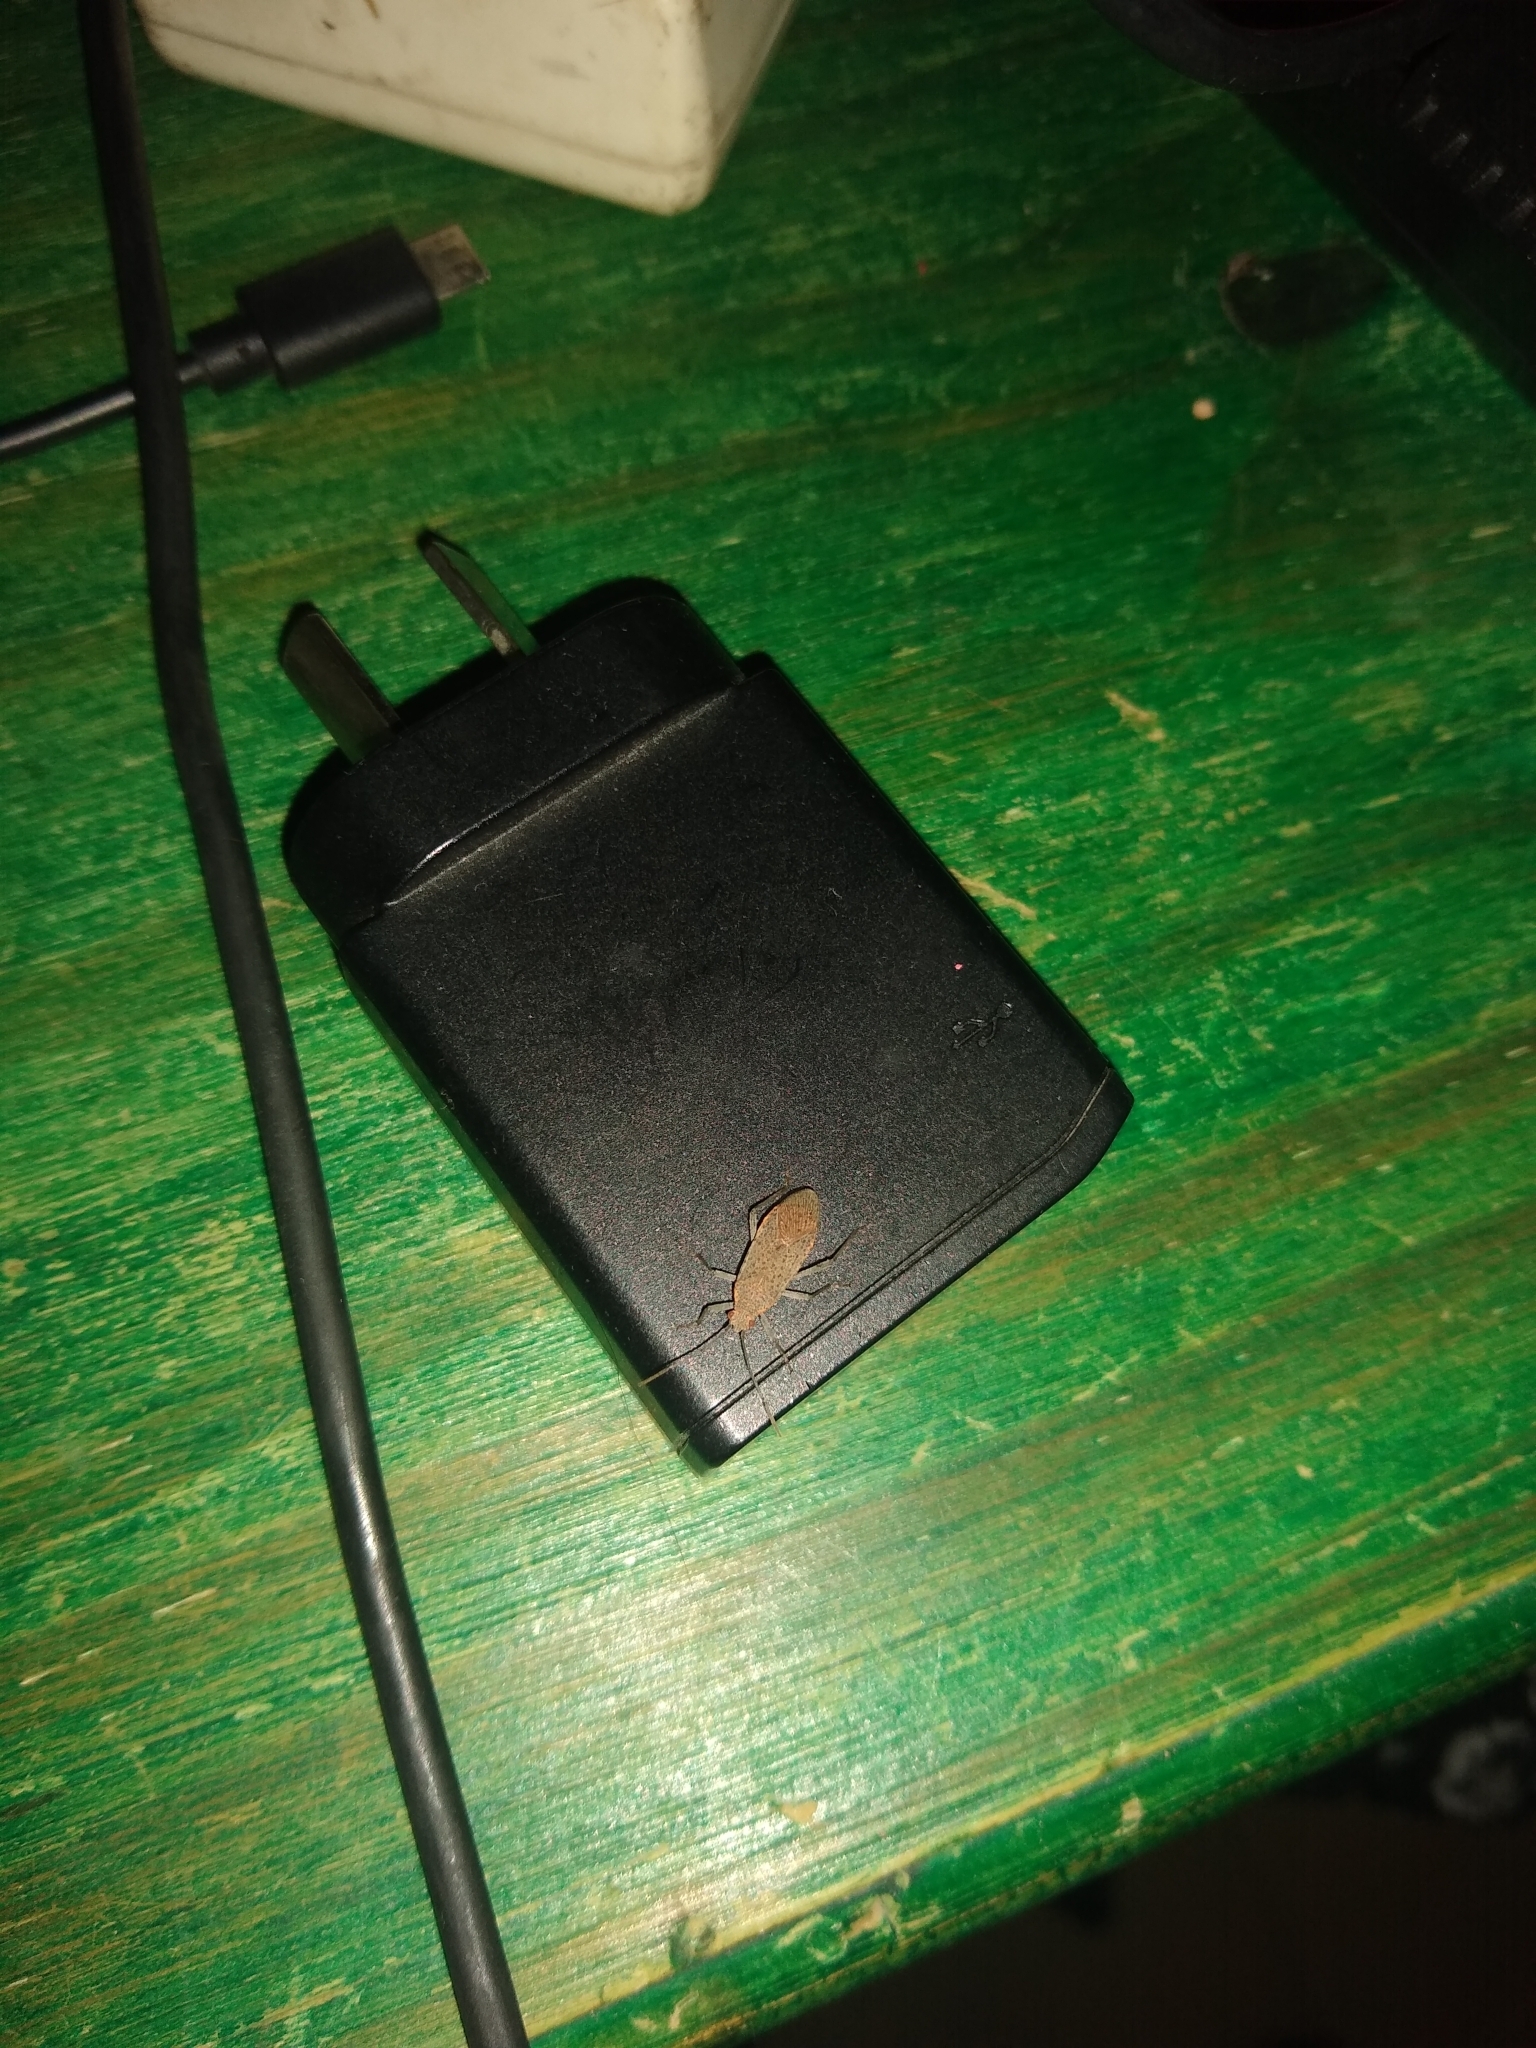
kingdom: Animalia
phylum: Arthropoda
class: Insecta
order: Hemiptera
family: Rhopalidae
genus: Jadera
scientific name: Jadera coturnix
